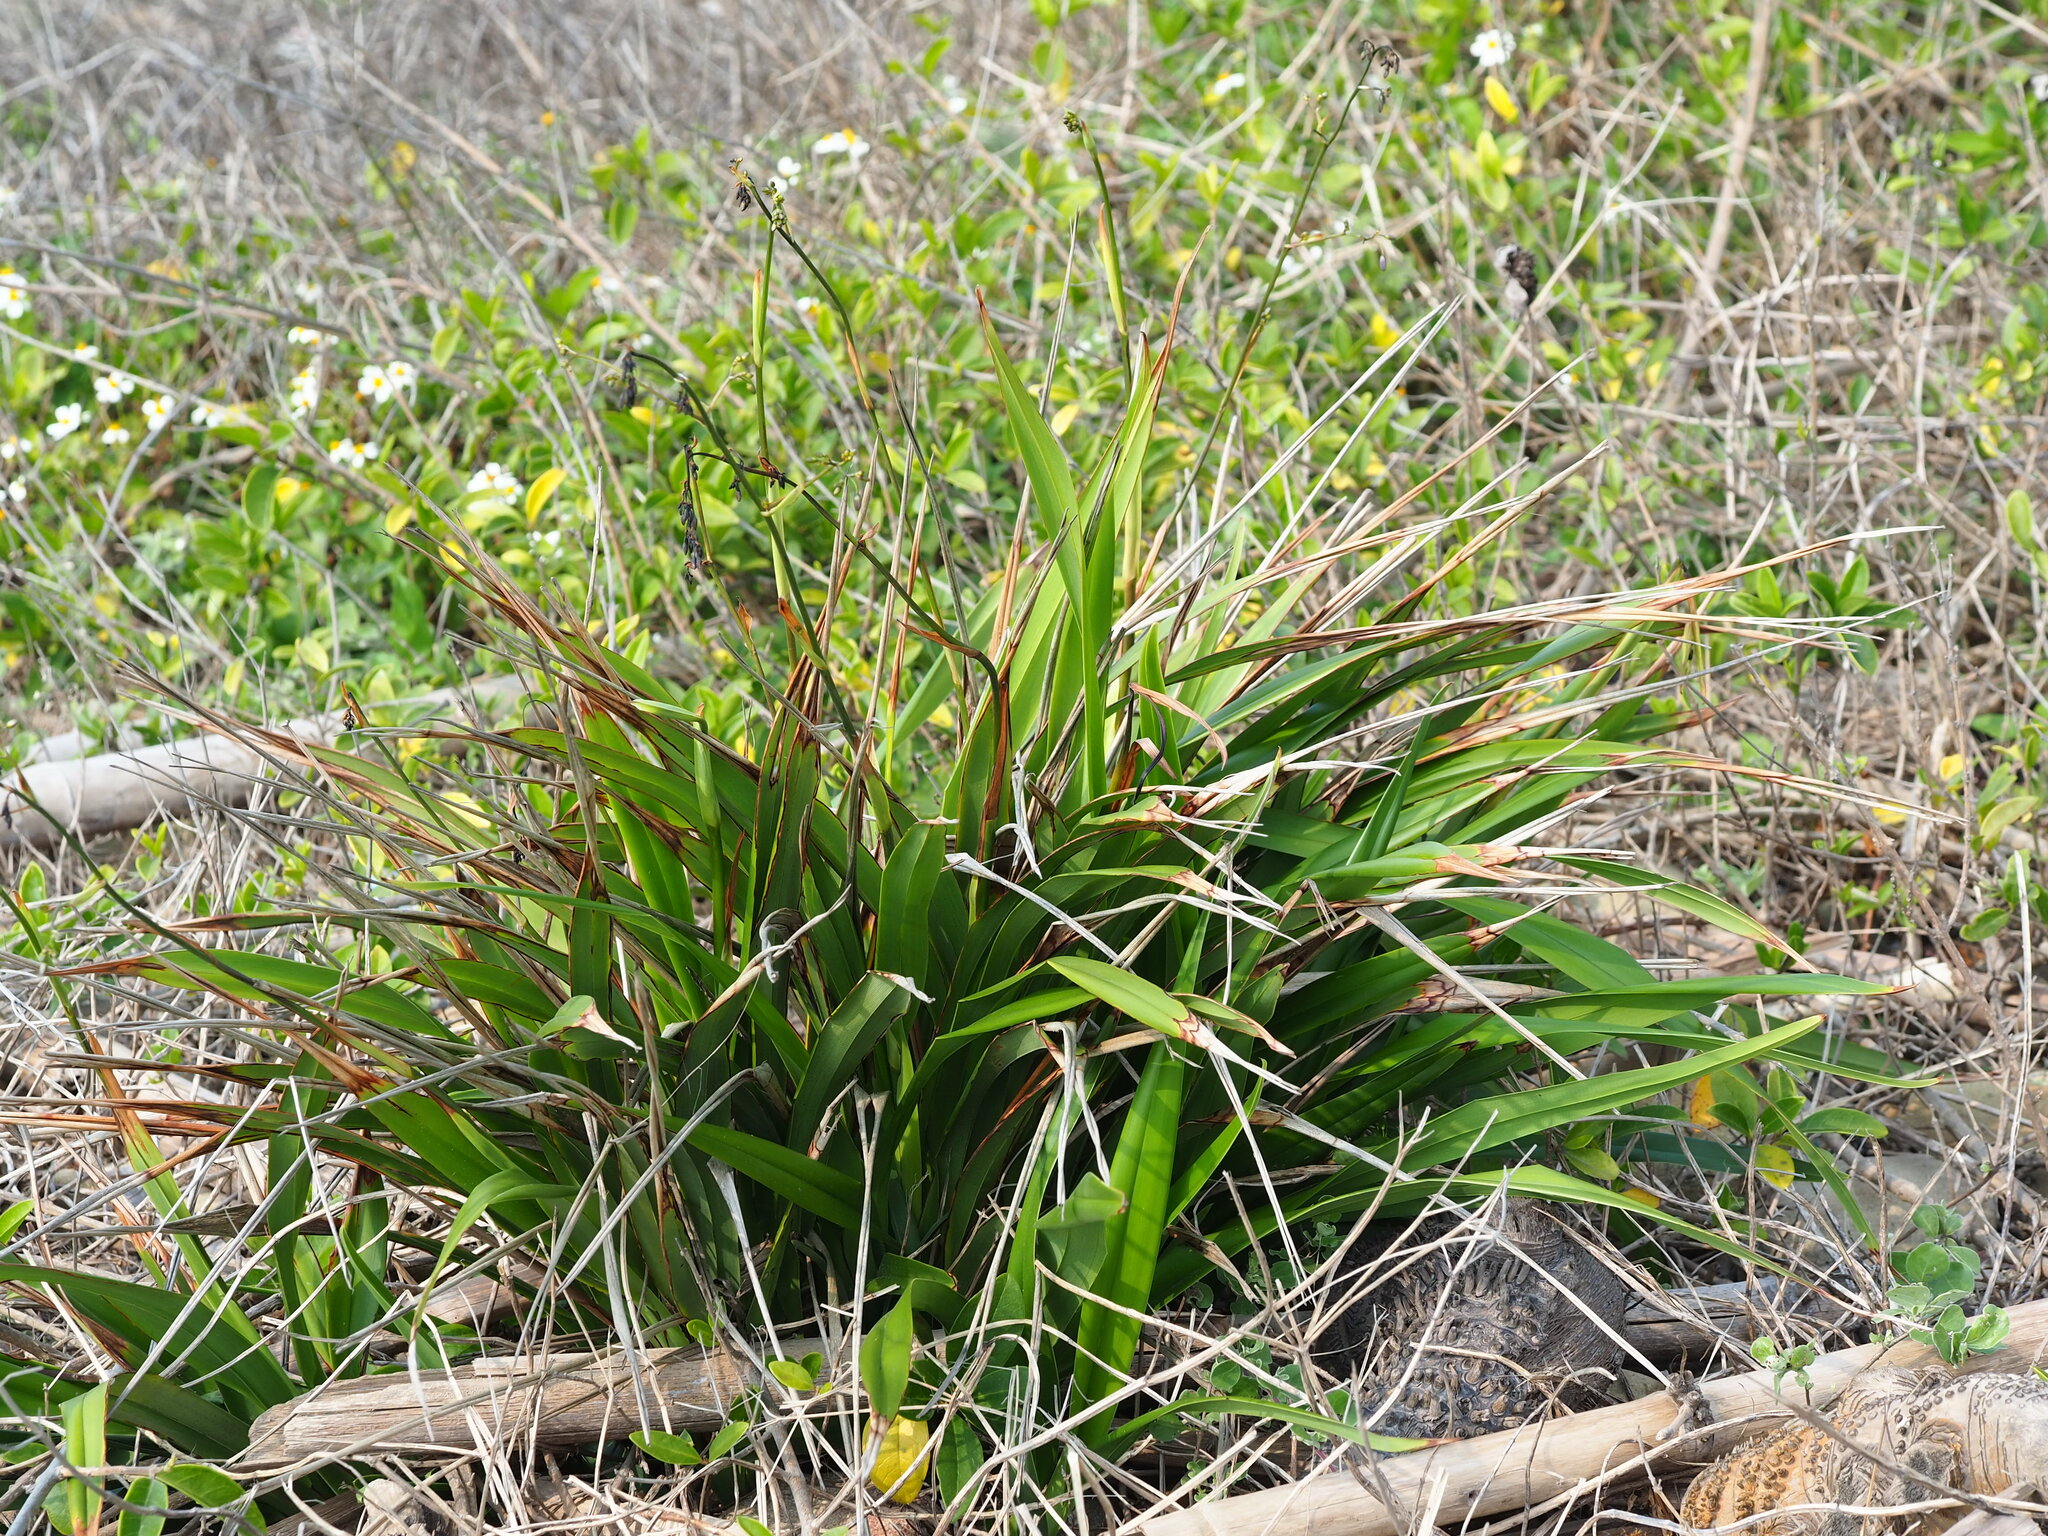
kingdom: Plantae
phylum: Tracheophyta
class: Liliopsida
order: Asparagales
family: Asphodelaceae
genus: Dianella
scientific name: Dianella ensifolia
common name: New zealand lilyplant
